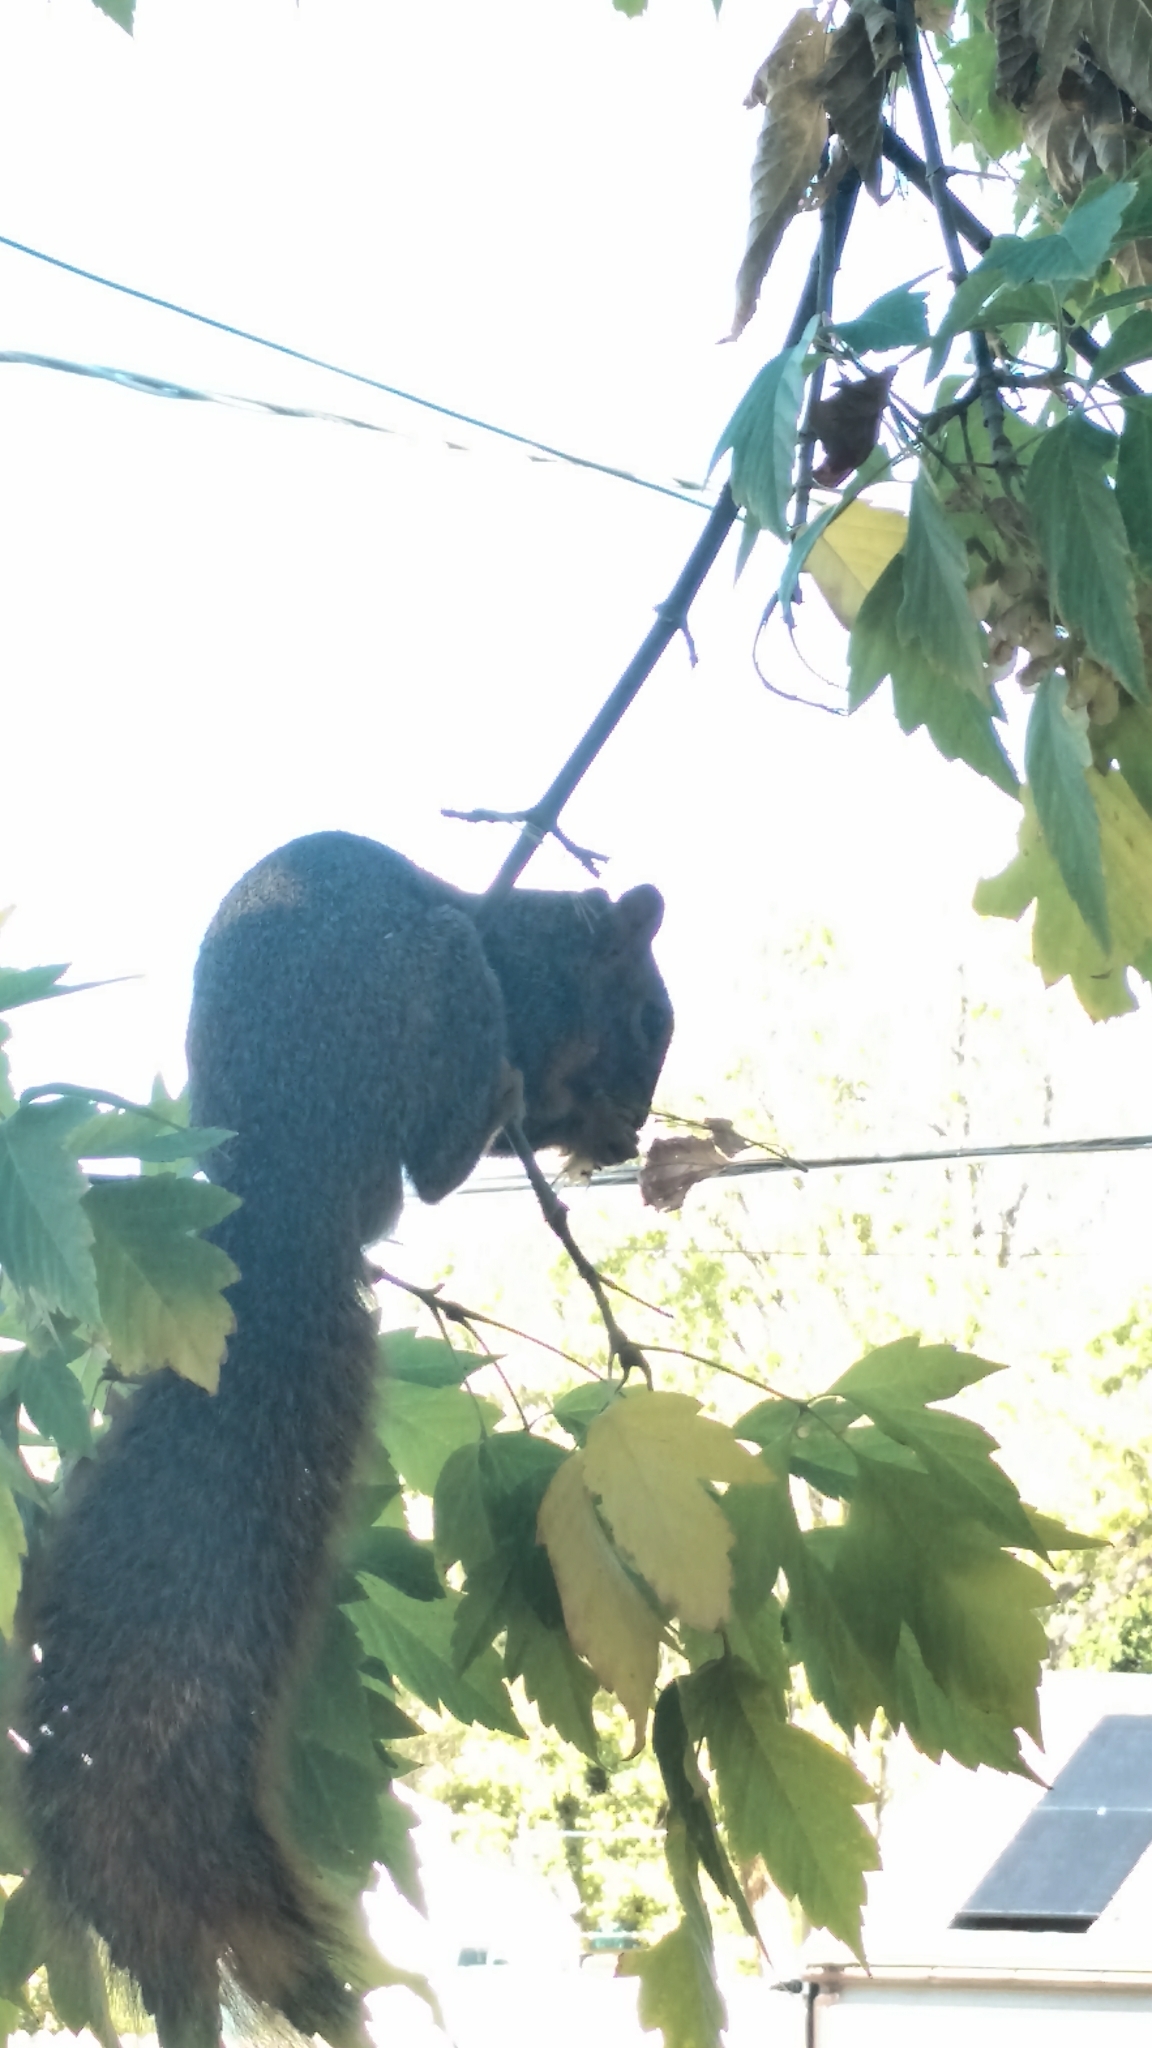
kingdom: Animalia
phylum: Chordata
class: Mammalia
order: Rodentia
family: Sciuridae
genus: Sciurus
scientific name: Sciurus niger
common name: Fox squirrel
